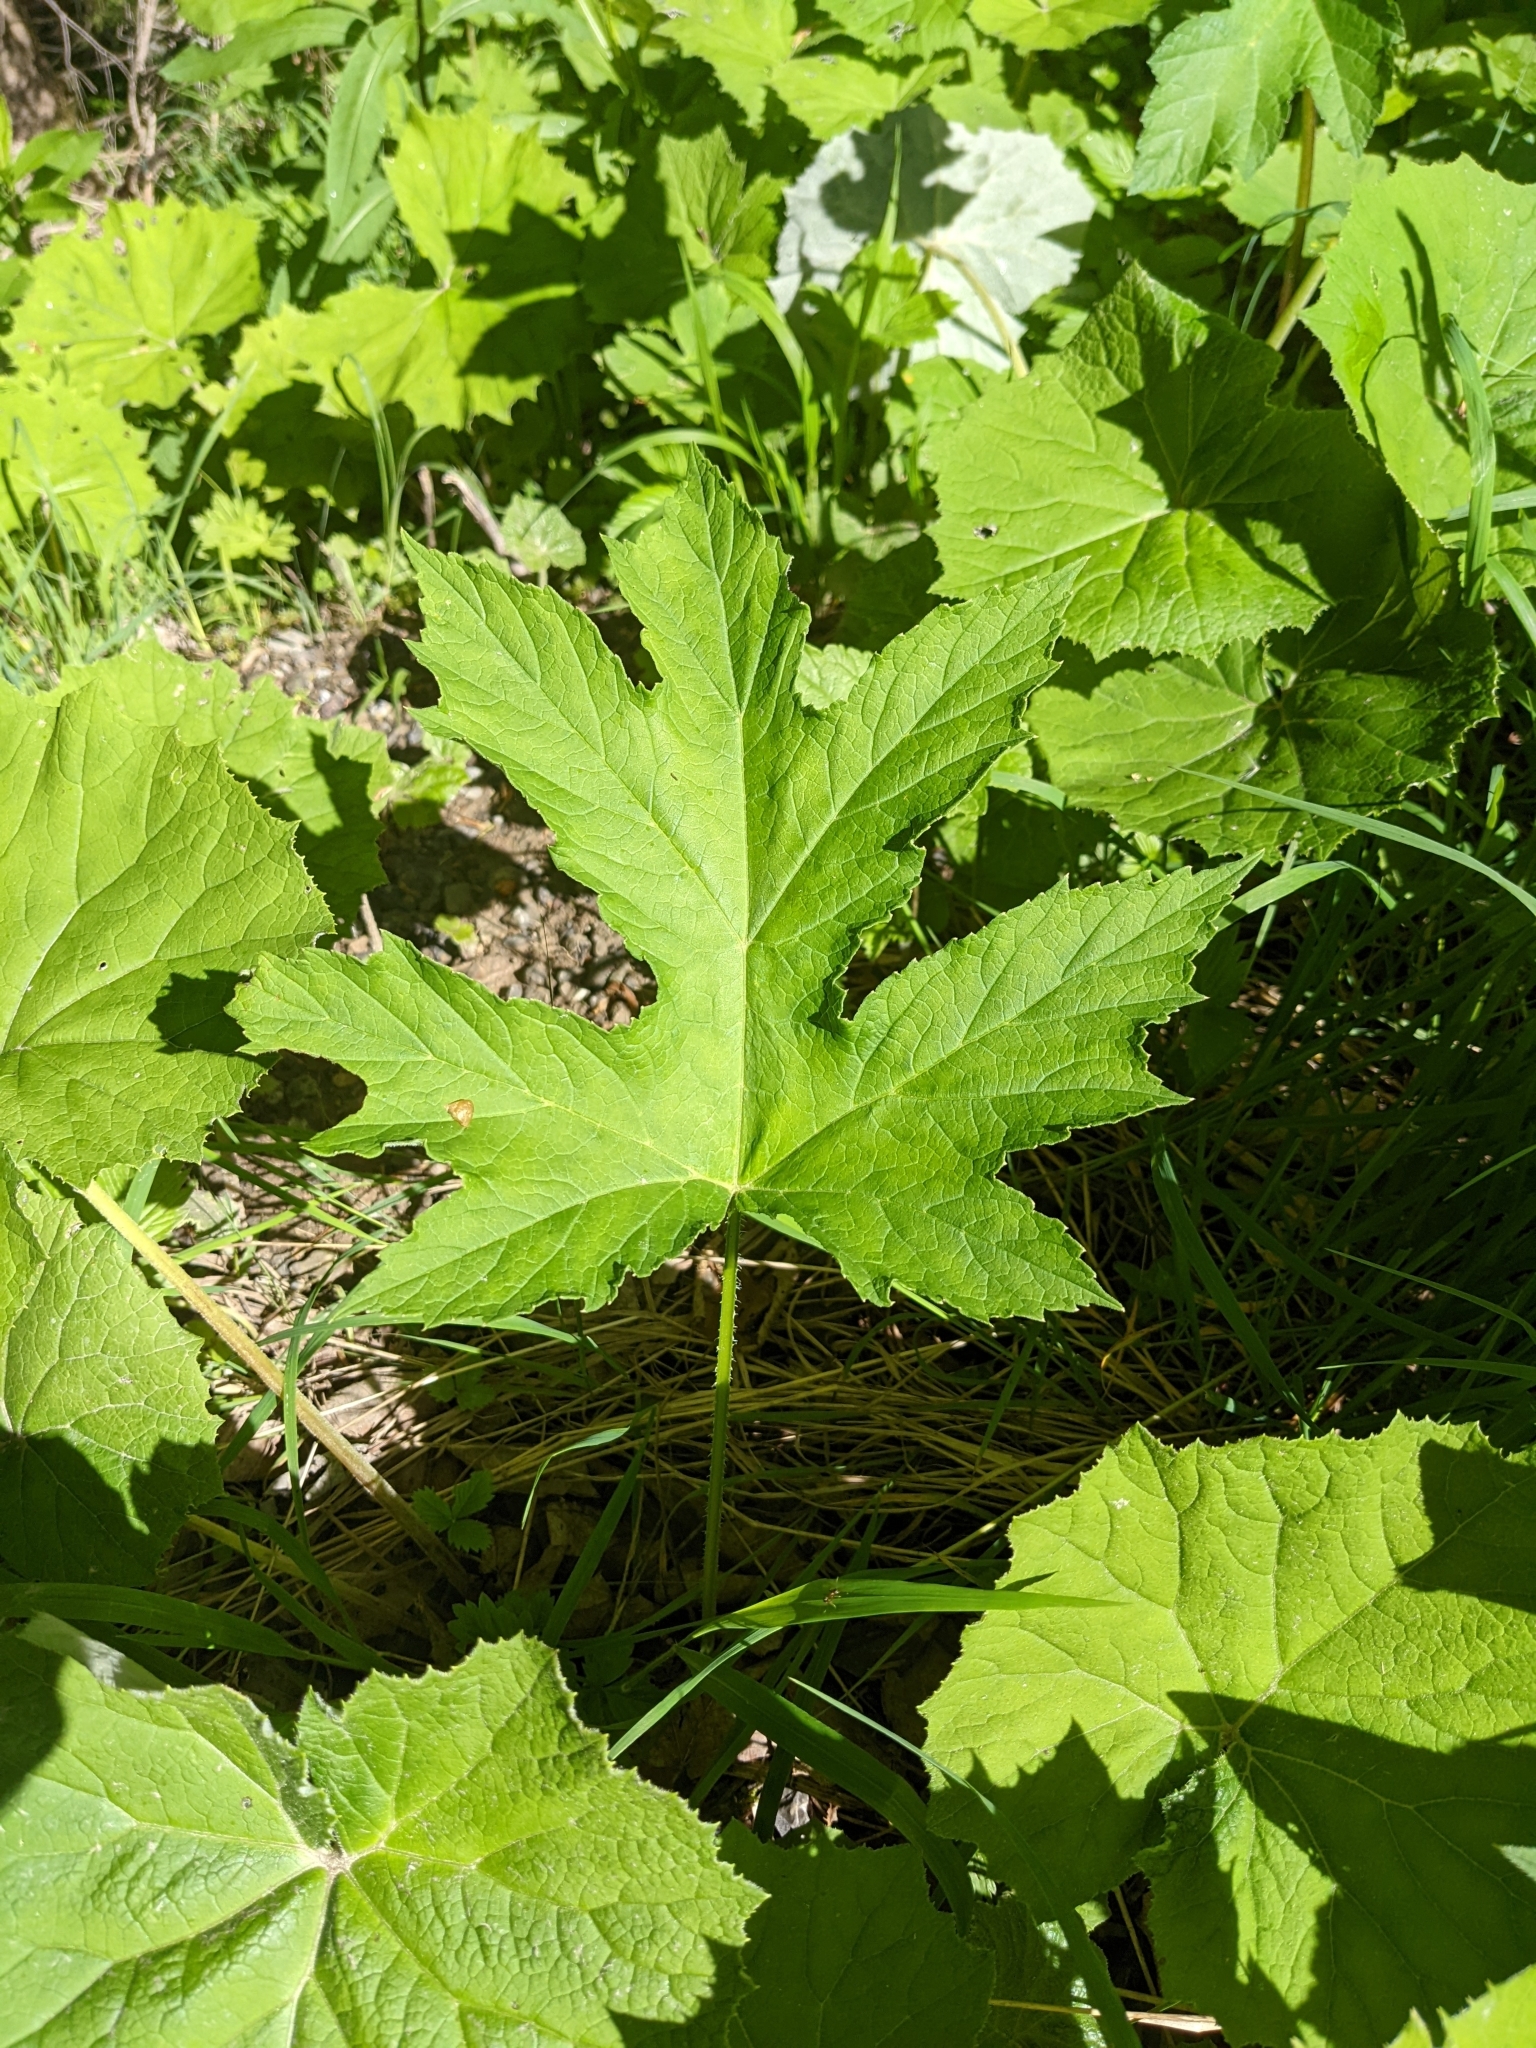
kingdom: Plantae
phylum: Tracheophyta
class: Magnoliopsida
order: Apiales
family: Apiaceae
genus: Heracleum
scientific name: Heracleum sphondylium
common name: Hogweed
